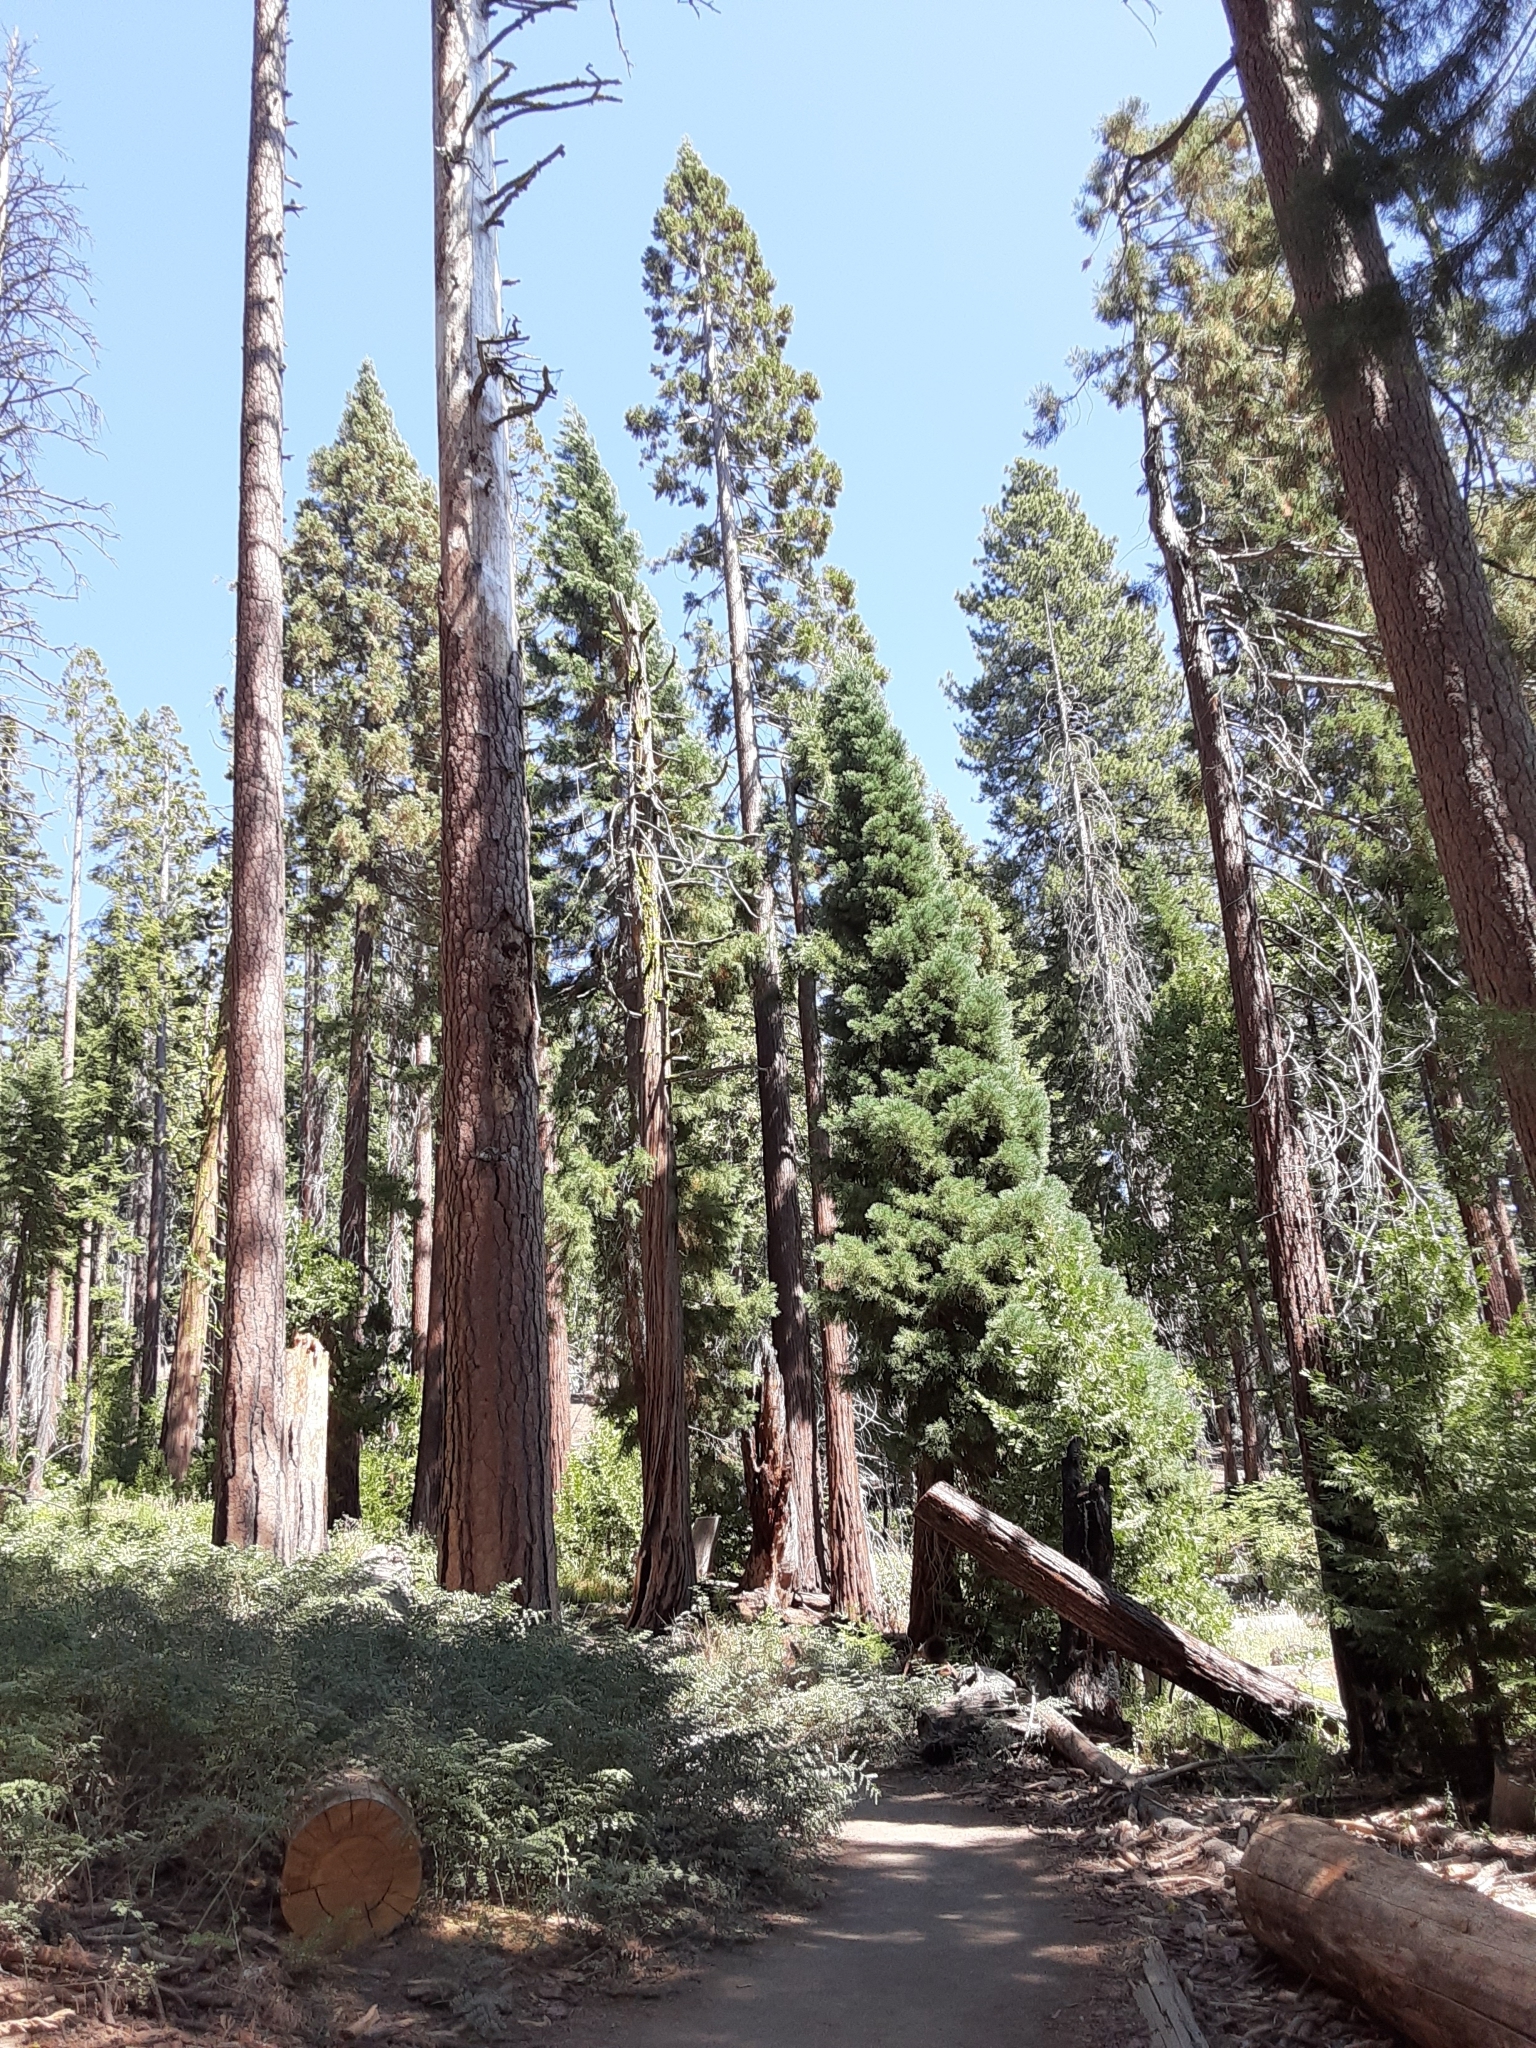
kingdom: Plantae
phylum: Tracheophyta
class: Pinopsida
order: Pinales
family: Cupressaceae
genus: Sequoiadendron
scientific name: Sequoiadendron giganteum
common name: Wellingtonia
